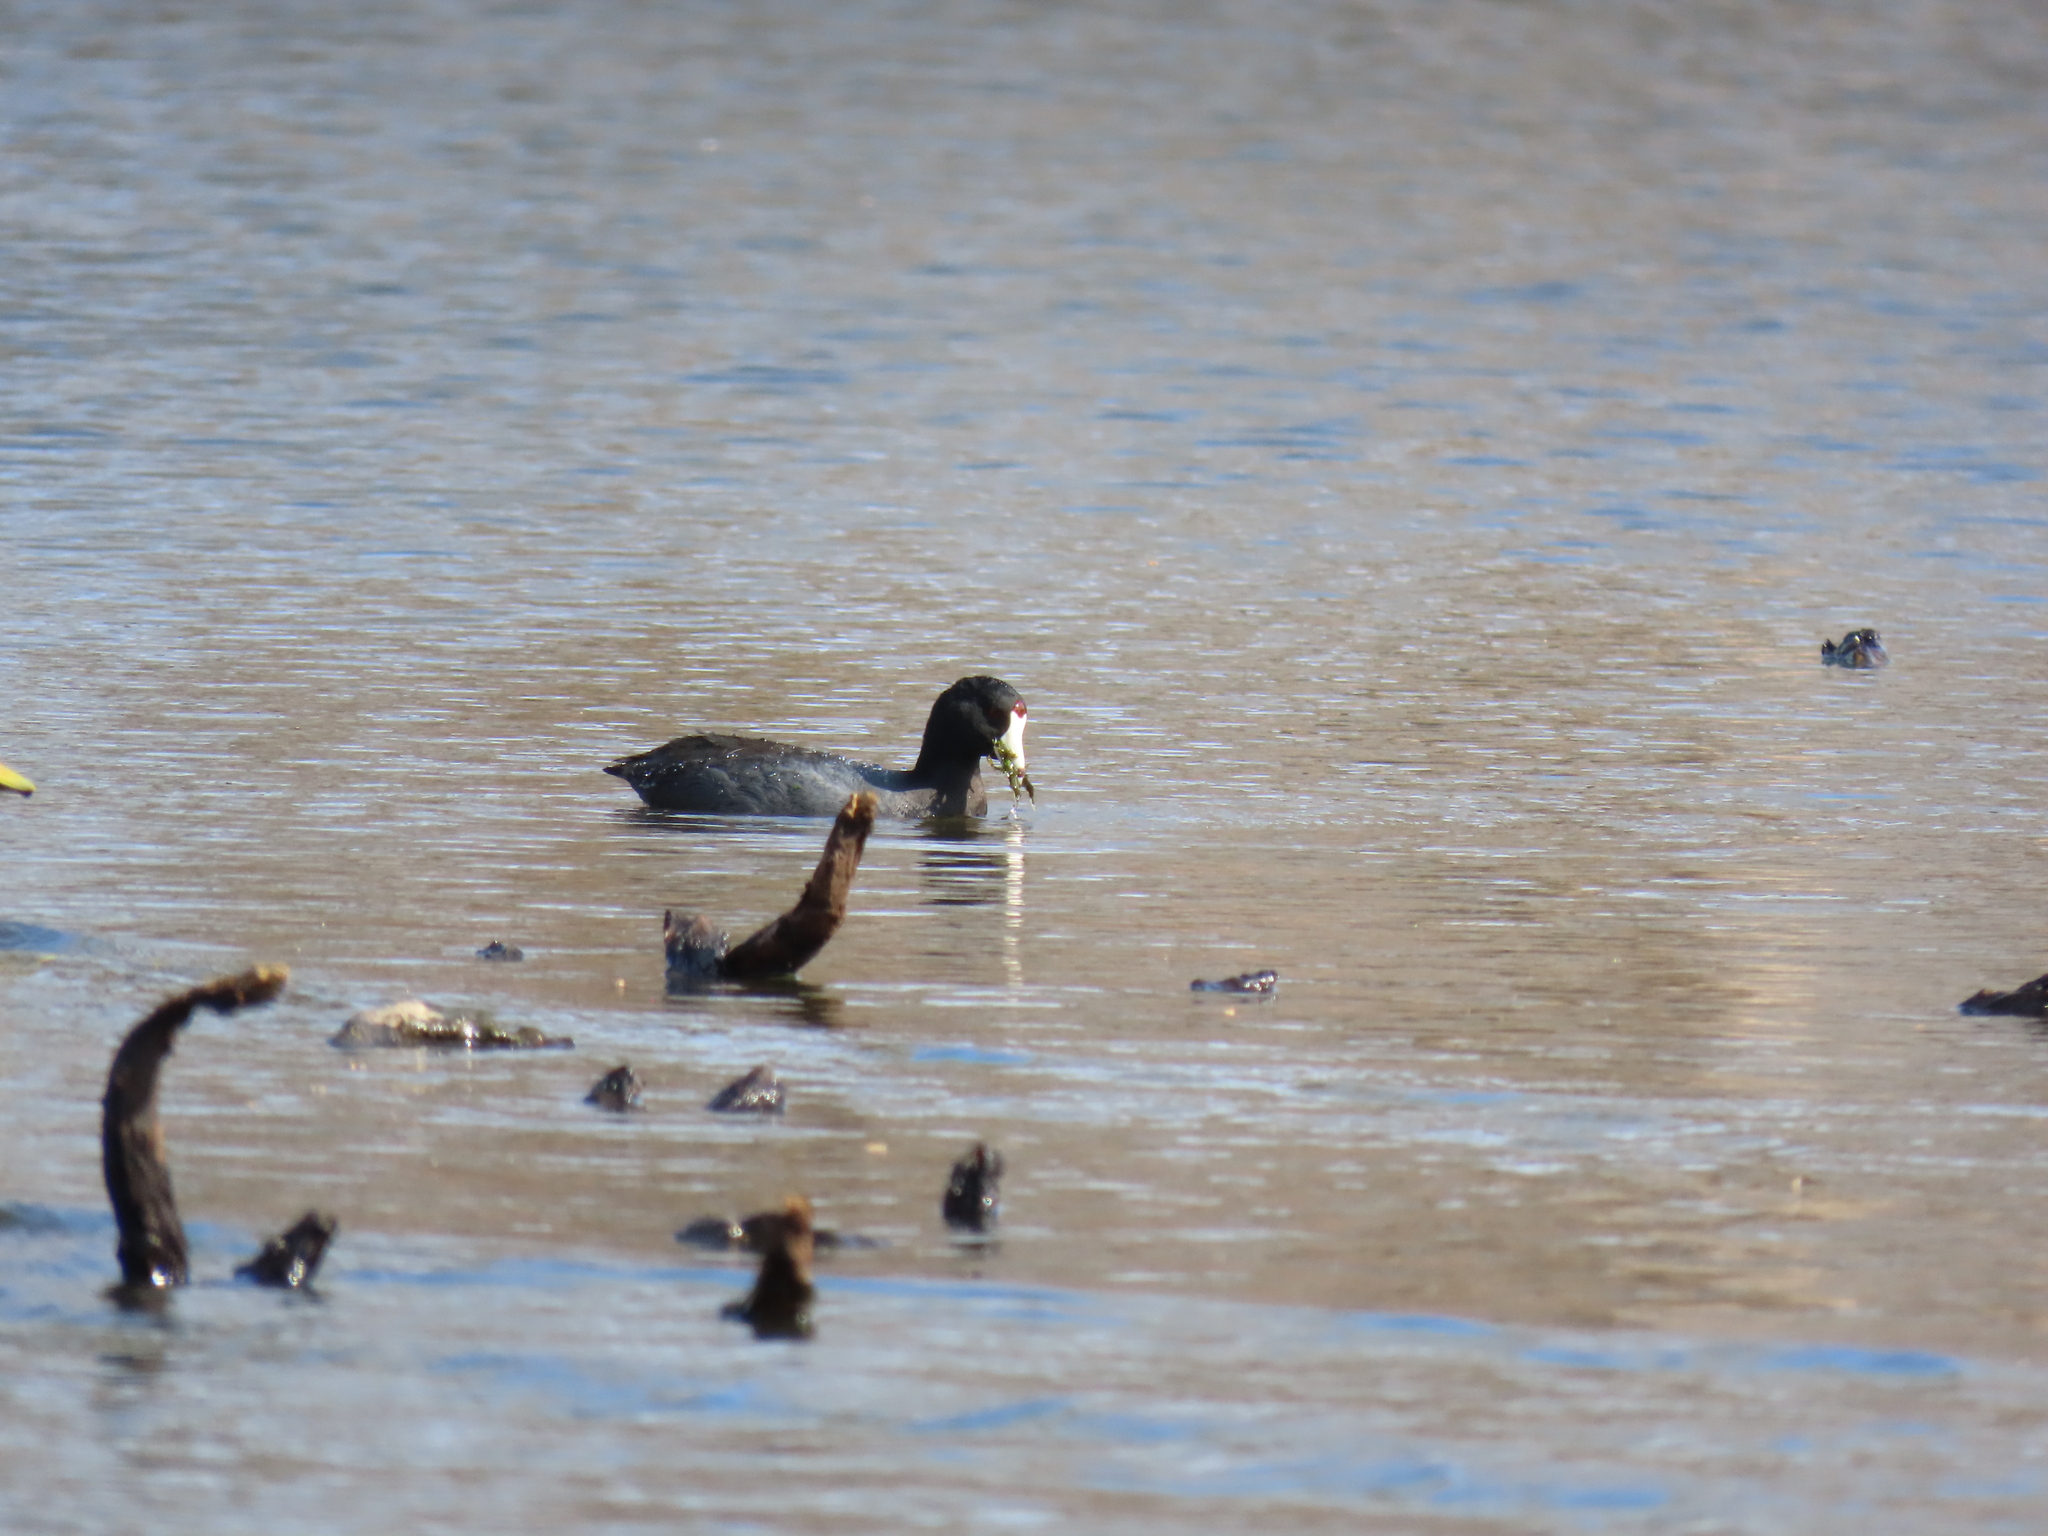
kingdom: Animalia
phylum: Chordata
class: Aves
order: Gruiformes
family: Rallidae
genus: Fulica
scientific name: Fulica americana
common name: American coot
